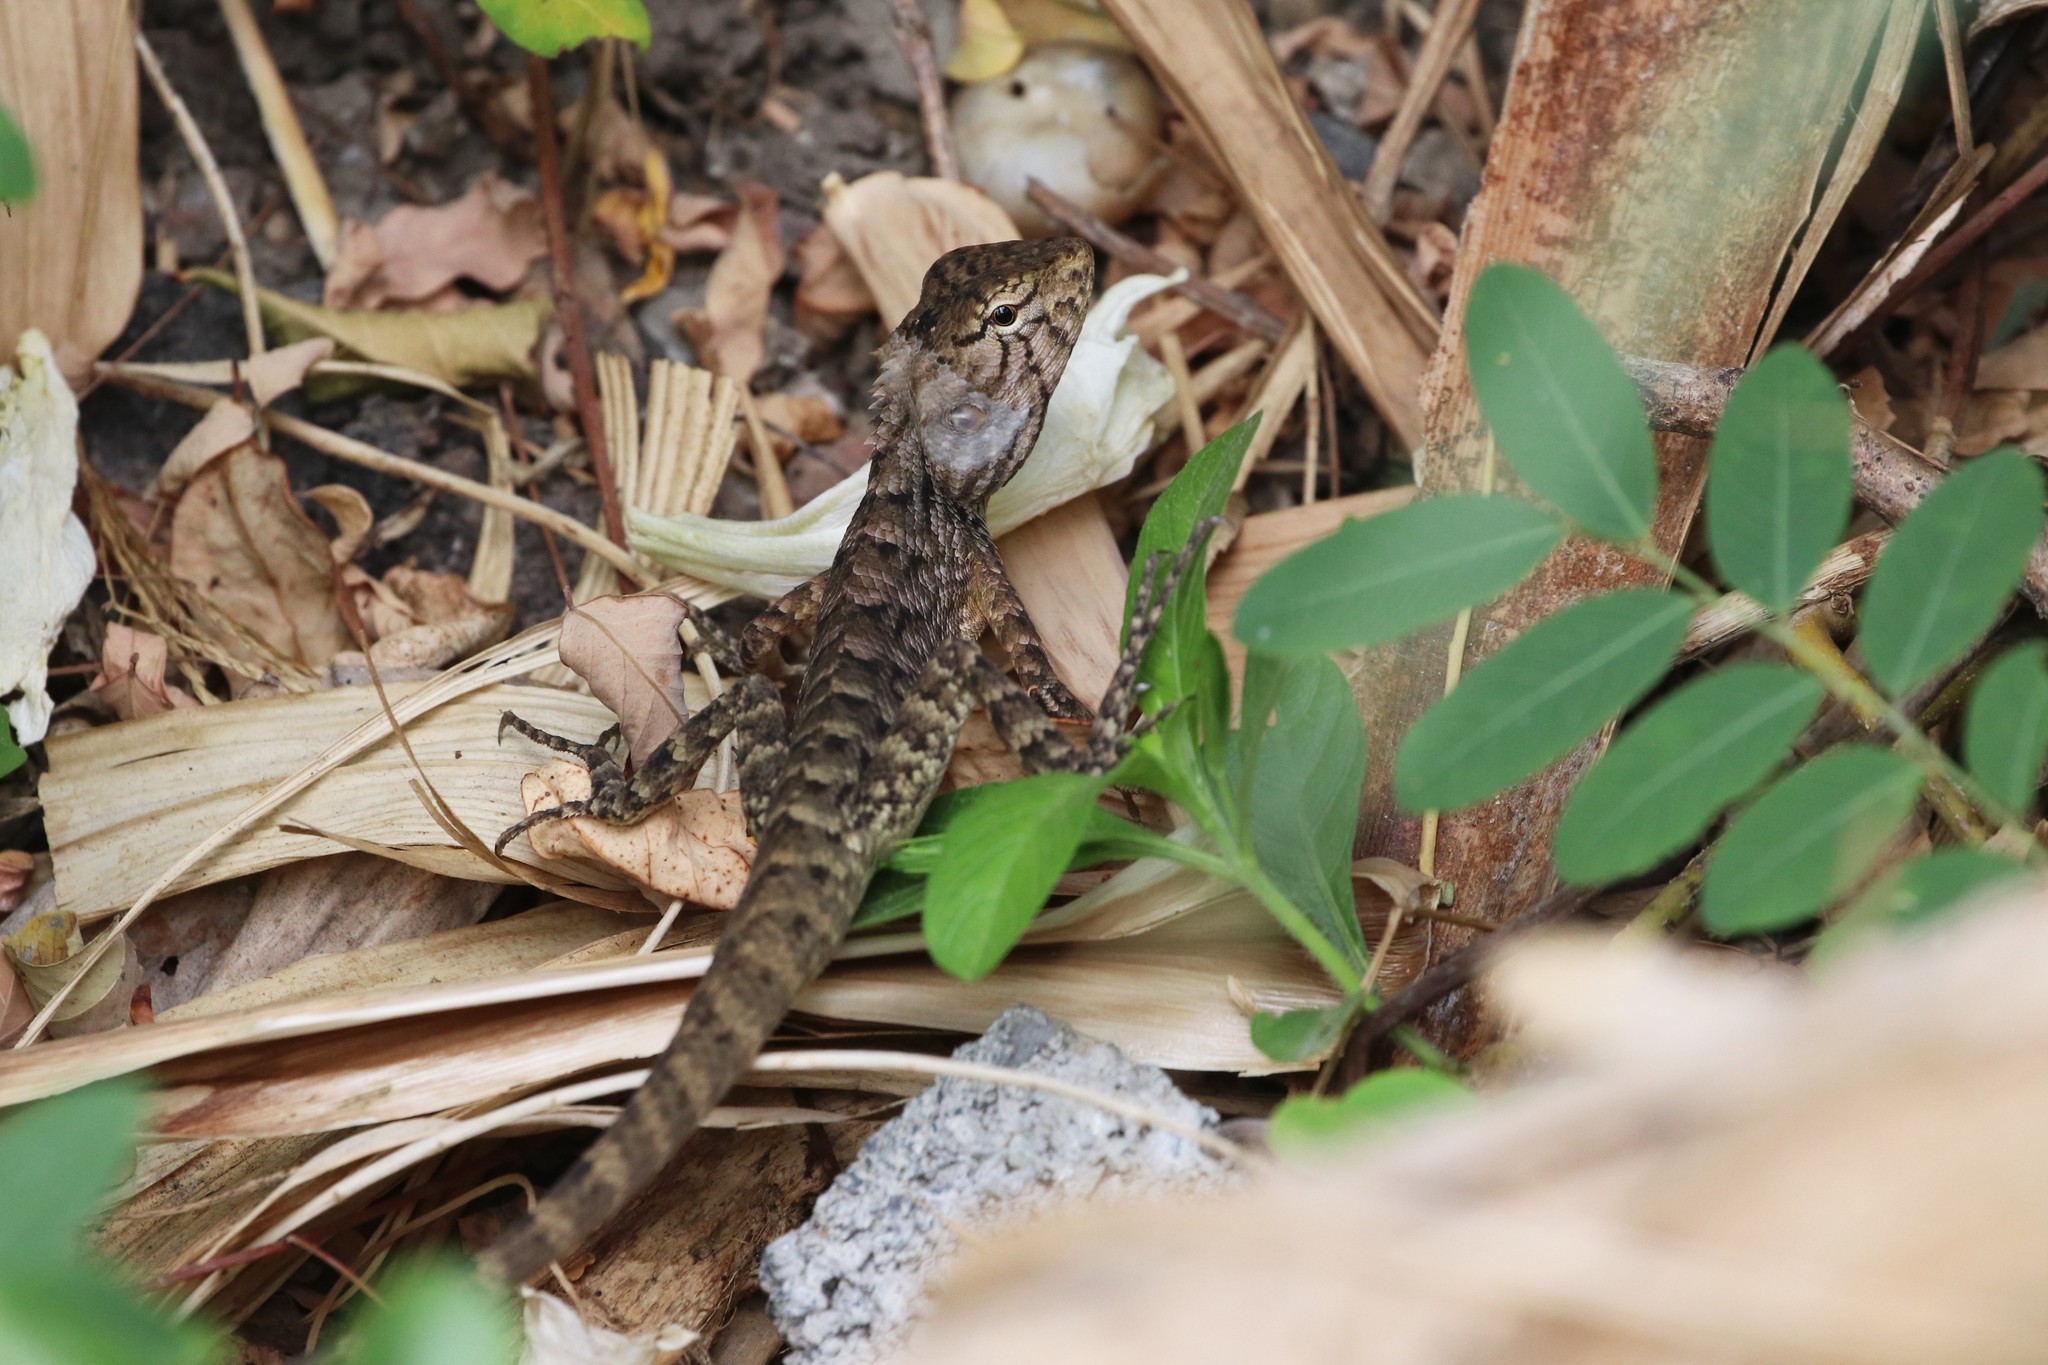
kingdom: Animalia
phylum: Chordata
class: Squamata
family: Agamidae
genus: Calotes
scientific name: Calotes versicolor
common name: Oriental garden lizard
